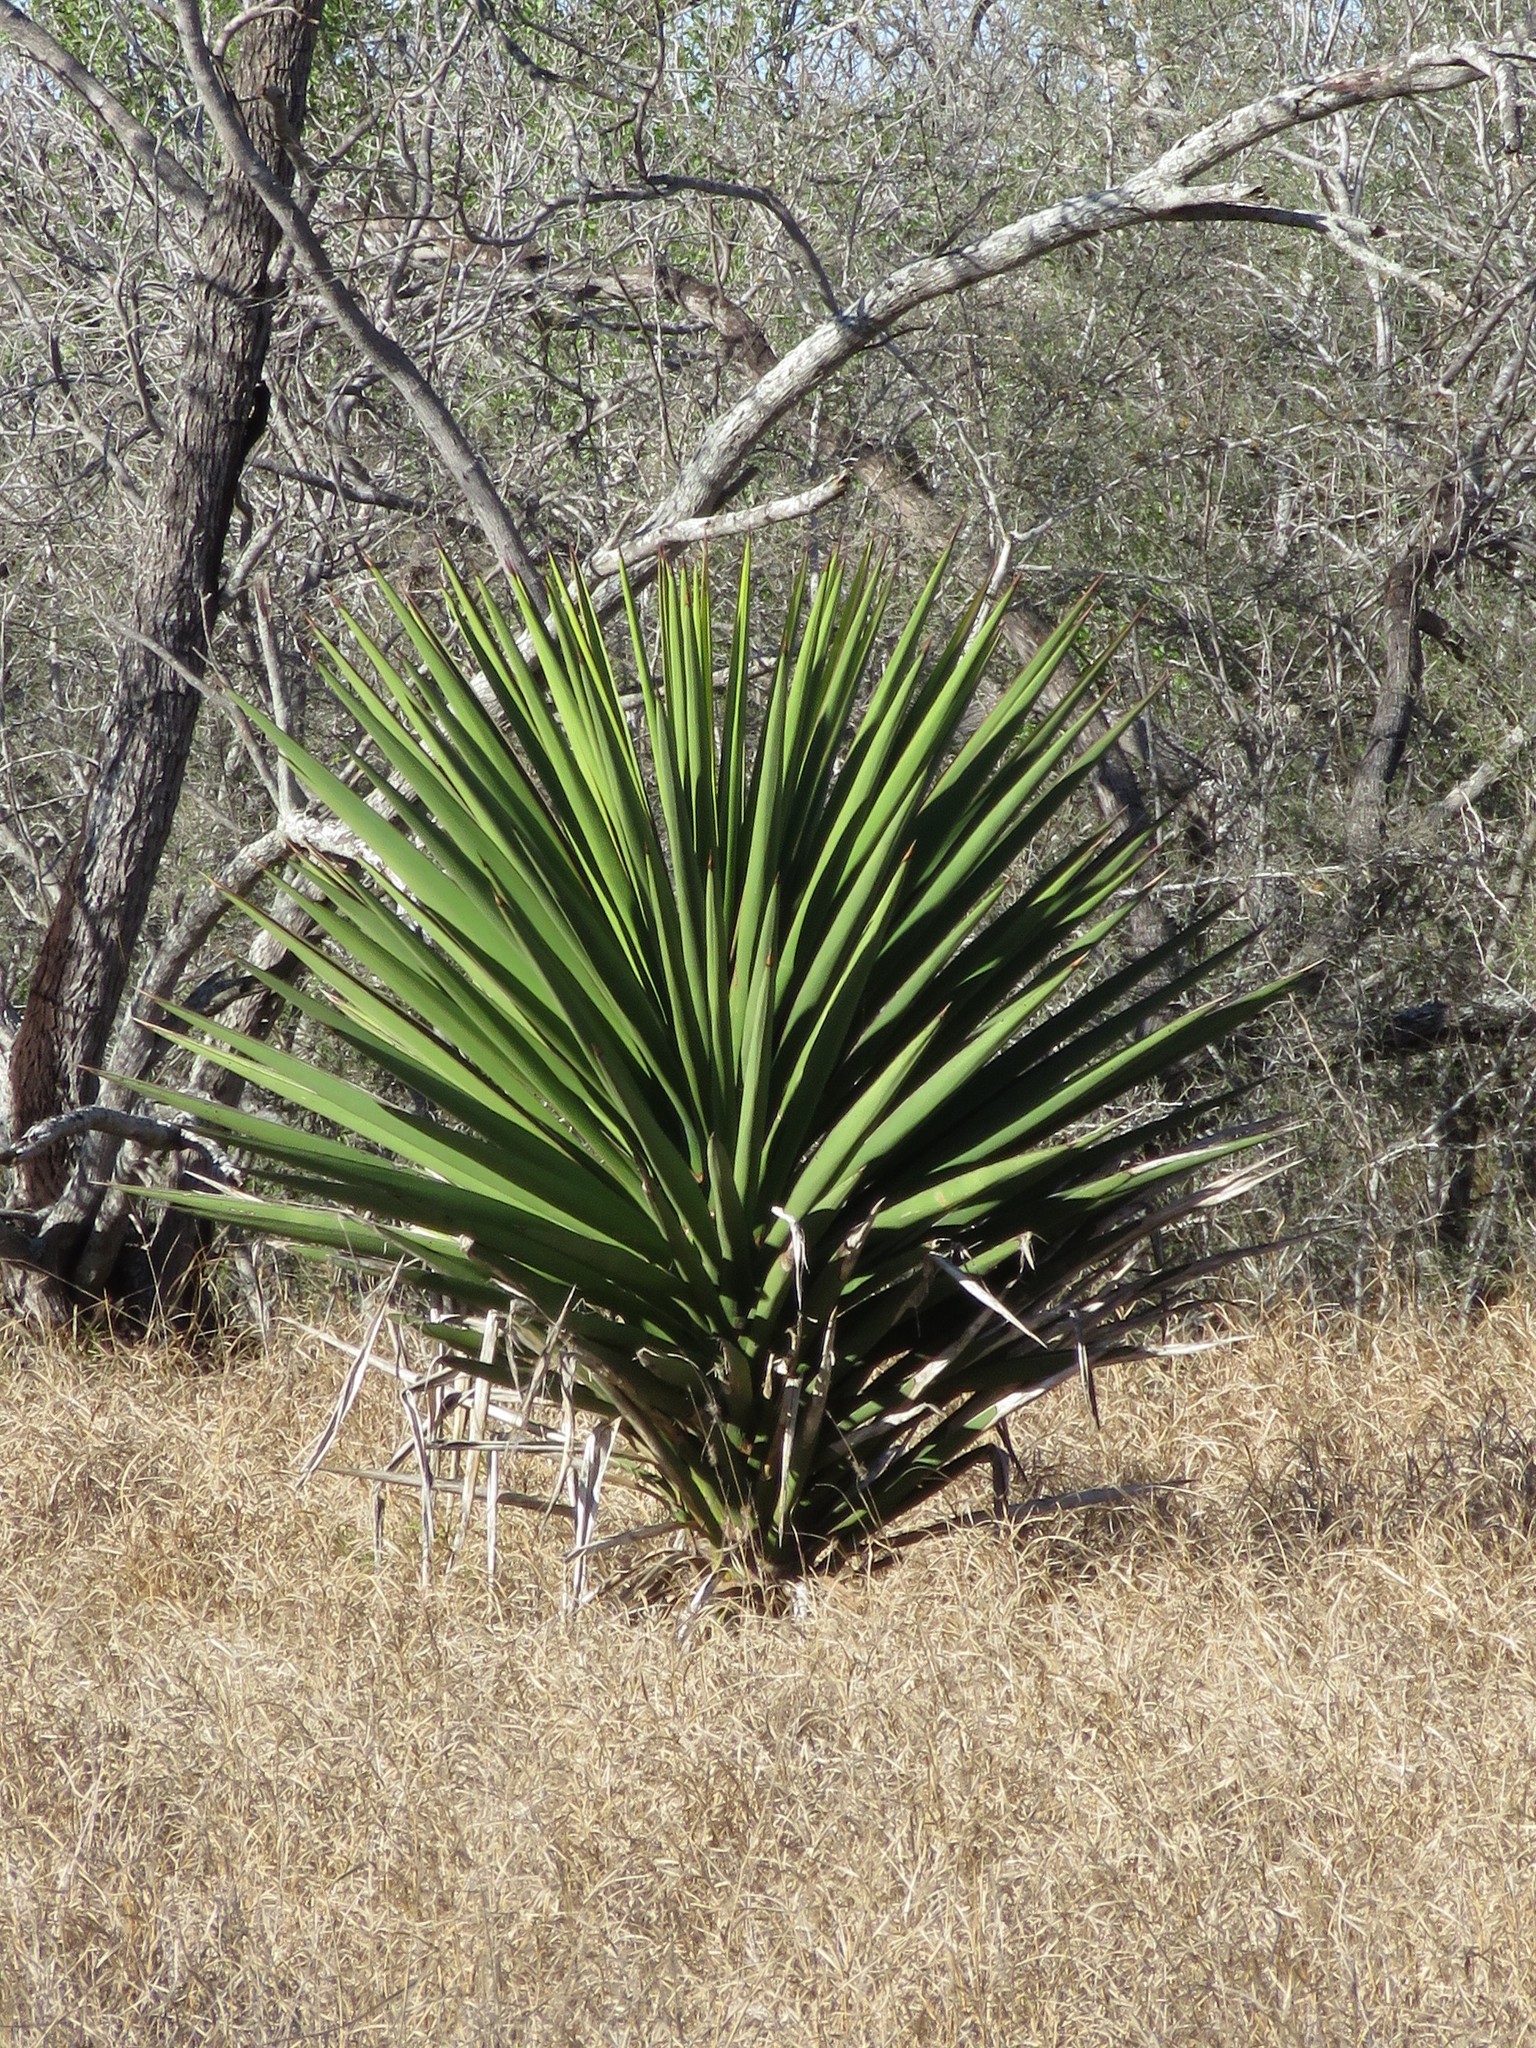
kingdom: Plantae
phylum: Tracheophyta
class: Liliopsida
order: Asparagales
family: Asparagaceae
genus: Yucca
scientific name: Yucca treculiana
